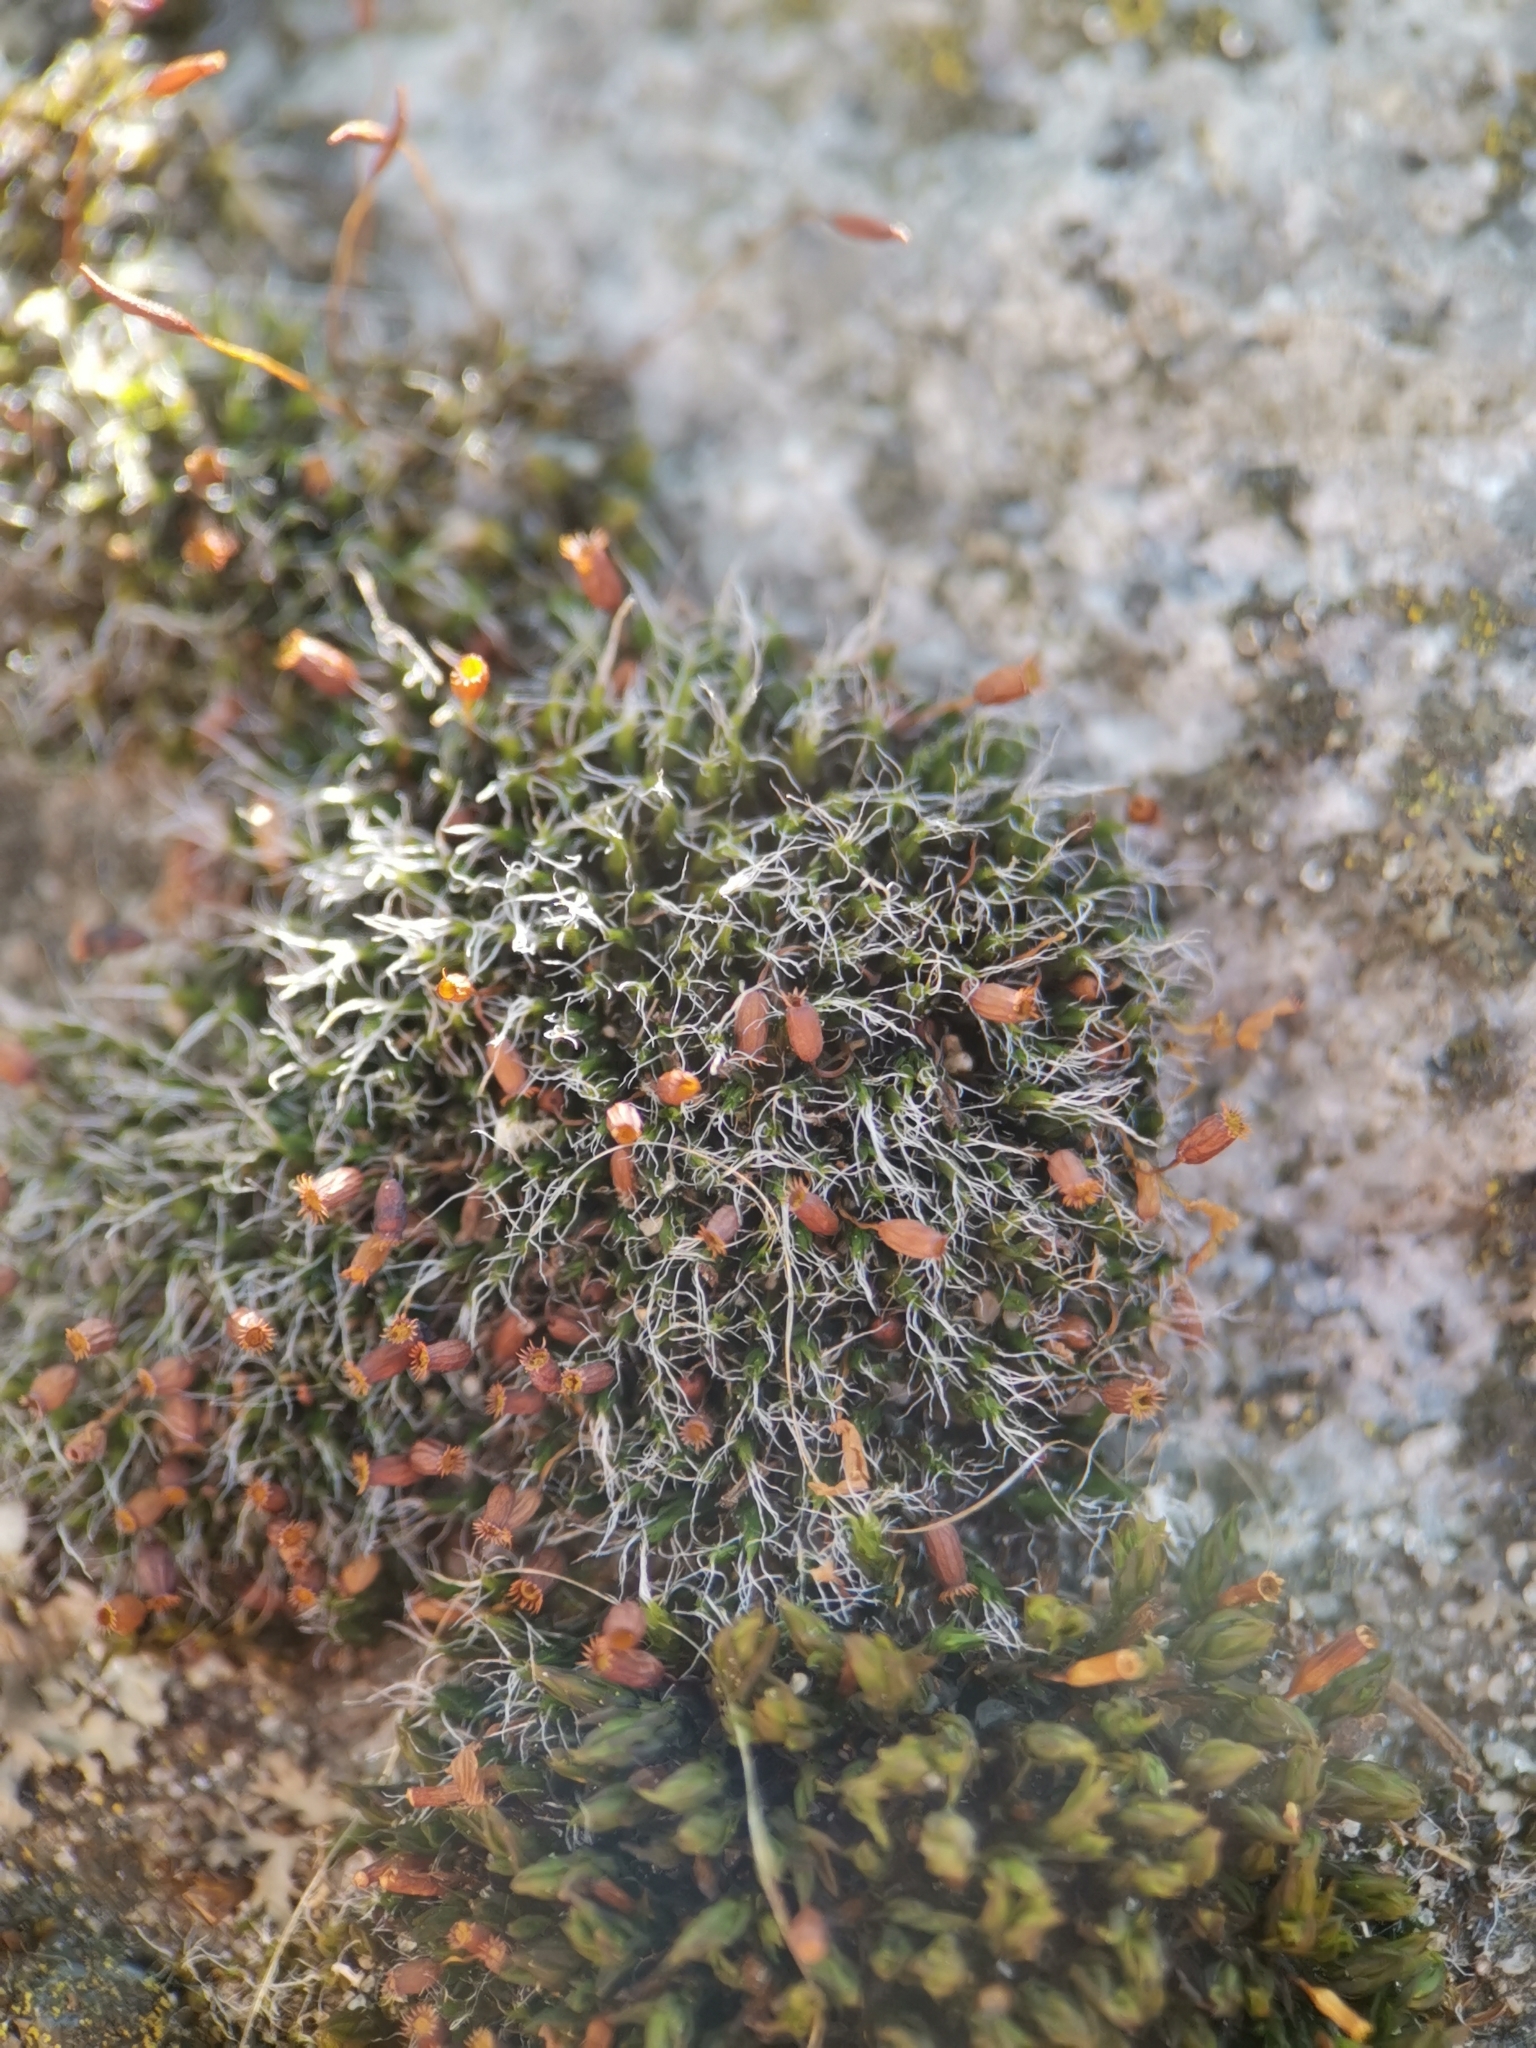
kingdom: Plantae
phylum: Bryophyta
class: Bryopsida
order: Grimmiales
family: Grimmiaceae
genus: Grimmia
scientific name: Grimmia pulvinata
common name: Grey-cushioned grimmia
